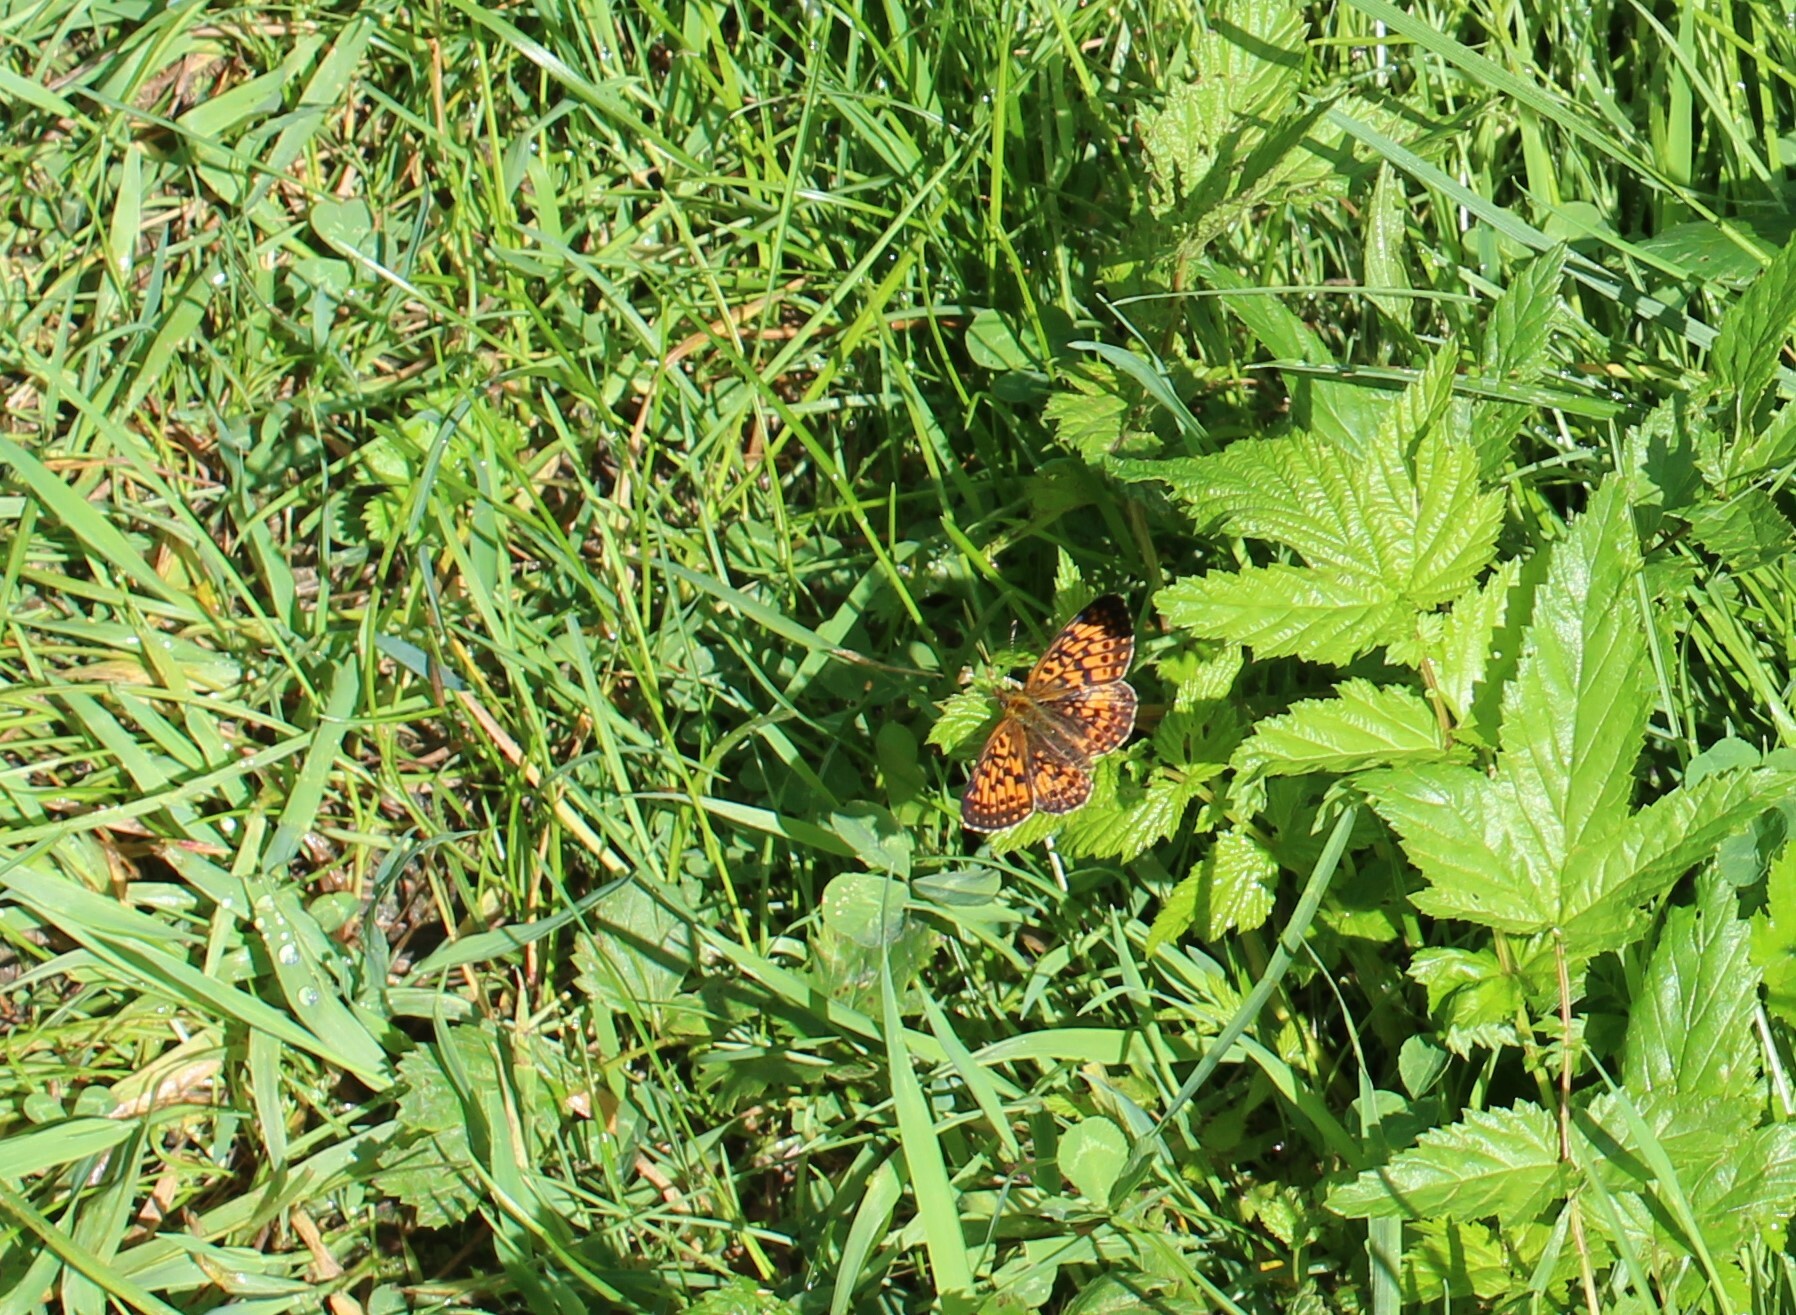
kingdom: Animalia
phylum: Arthropoda
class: Insecta
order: Lepidoptera
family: Nymphalidae
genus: Boloria
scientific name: Boloria selene
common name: Small pearl-bordered fritillary
